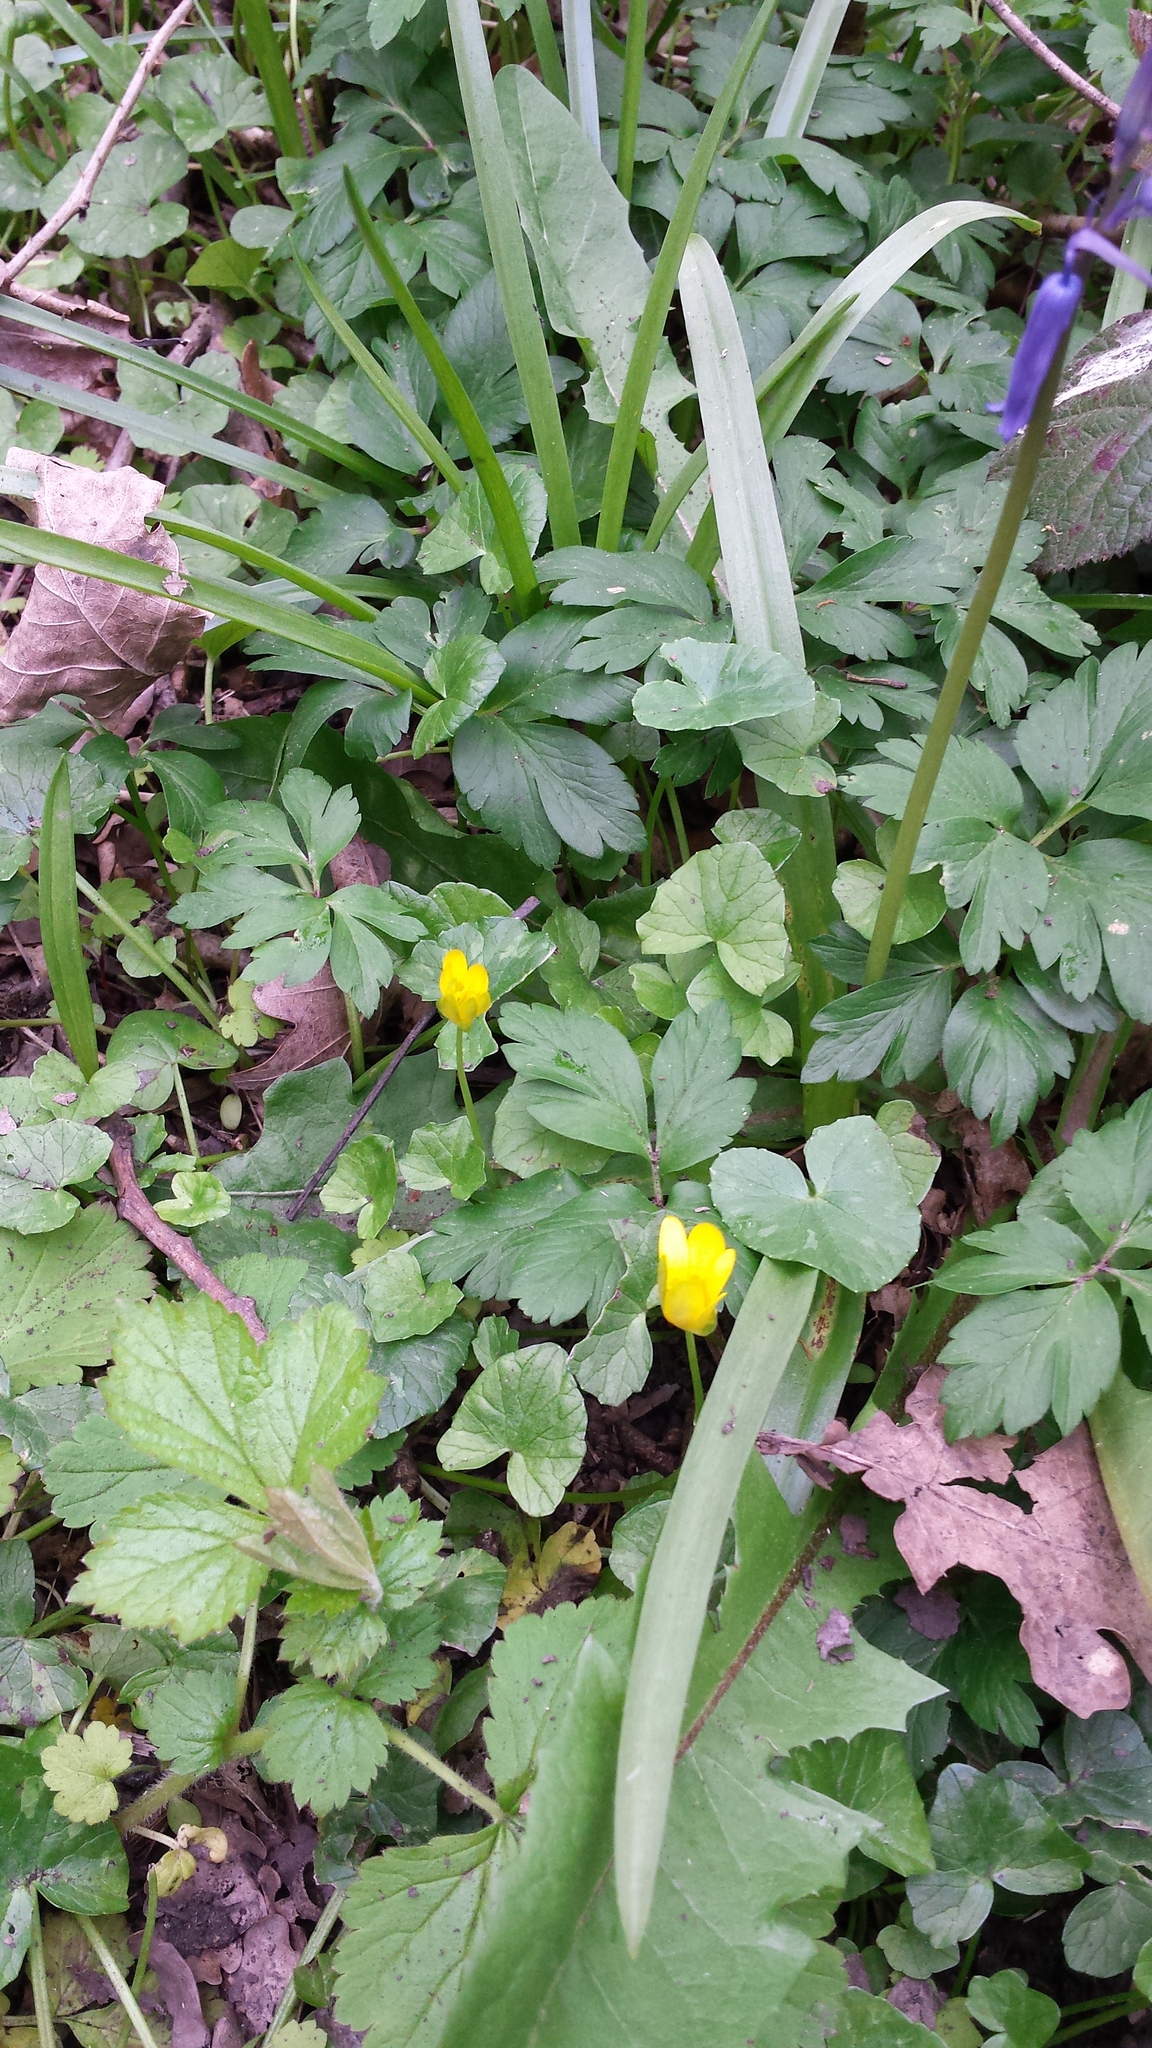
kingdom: Plantae
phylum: Tracheophyta
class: Magnoliopsida
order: Ranunculales
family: Ranunculaceae
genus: Ficaria
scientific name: Ficaria verna
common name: Lesser celandine
